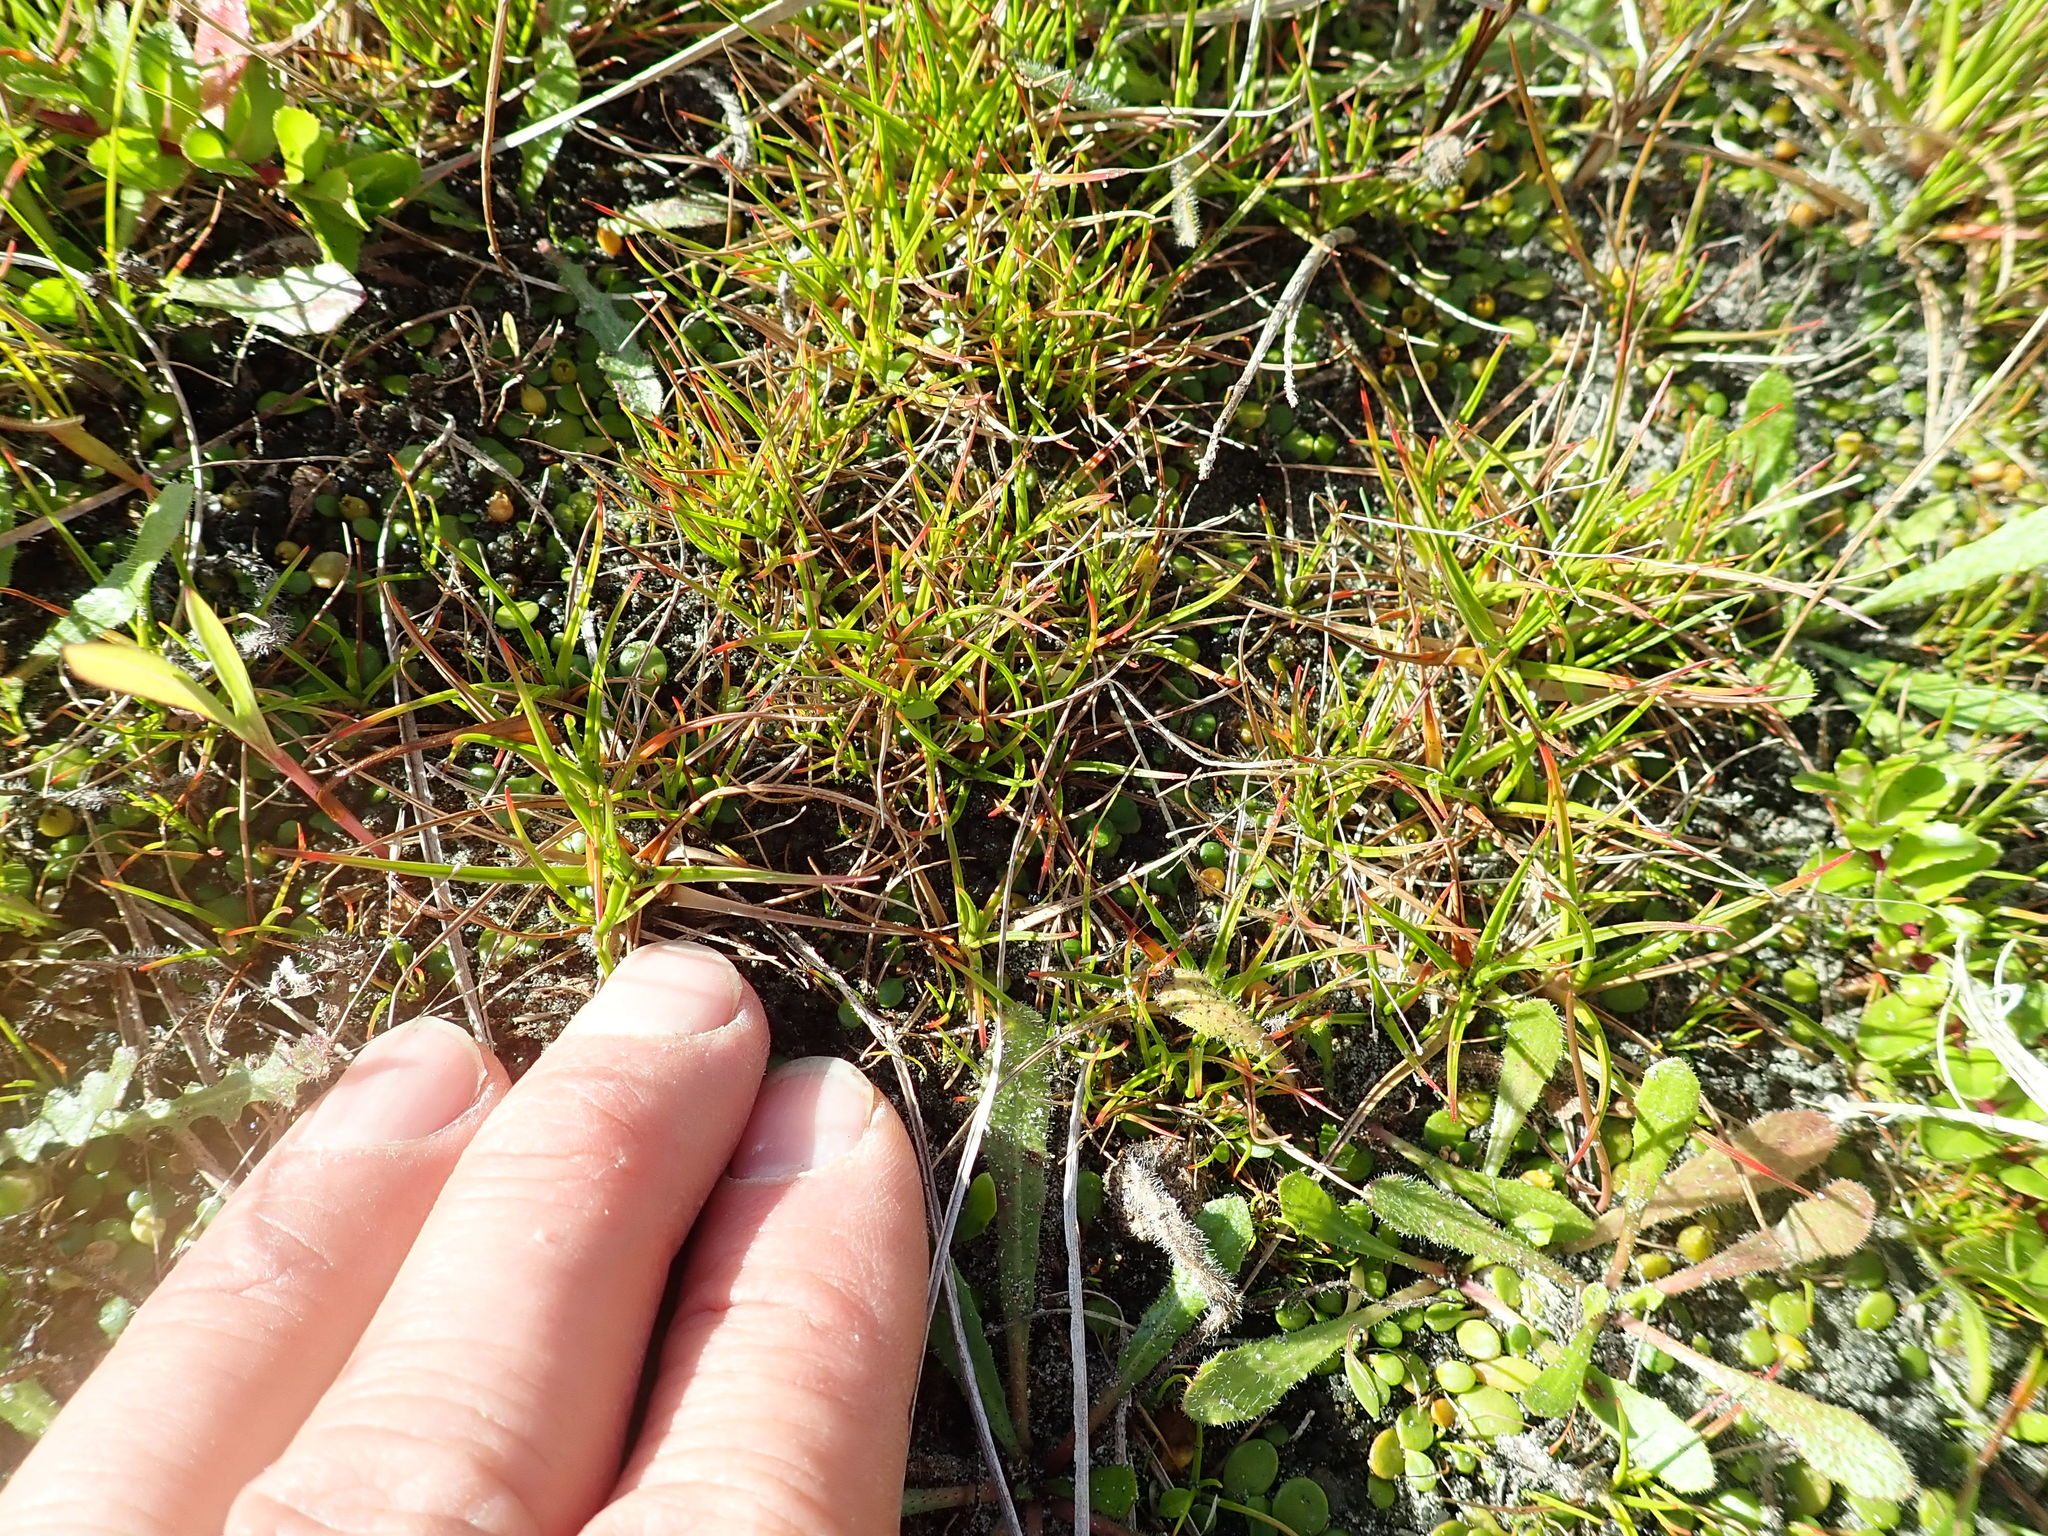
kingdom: Plantae
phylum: Tracheophyta
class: Liliopsida
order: Poales
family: Juncaceae
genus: Juncus
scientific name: Juncus caespiticius
